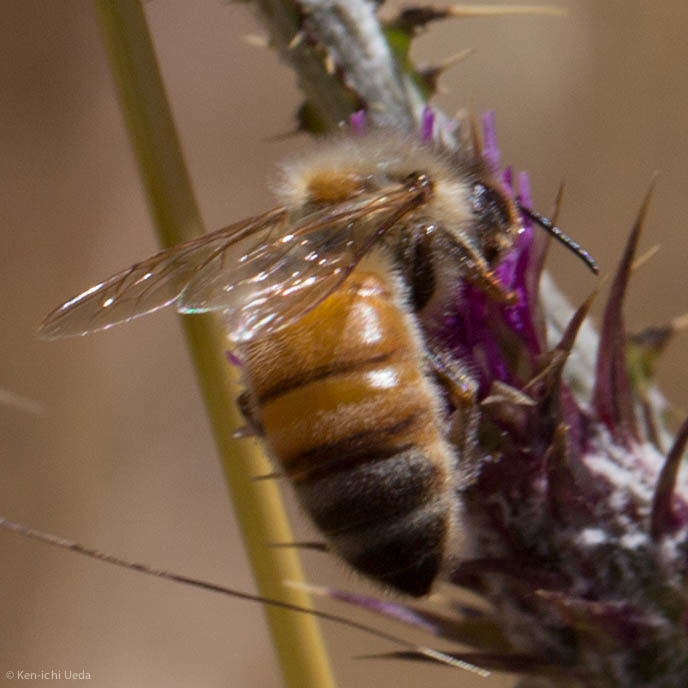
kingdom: Animalia
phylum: Arthropoda
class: Insecta
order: Hymenoptera
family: Apidae
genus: Apis
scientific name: Apis mellifera
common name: Honey bee
